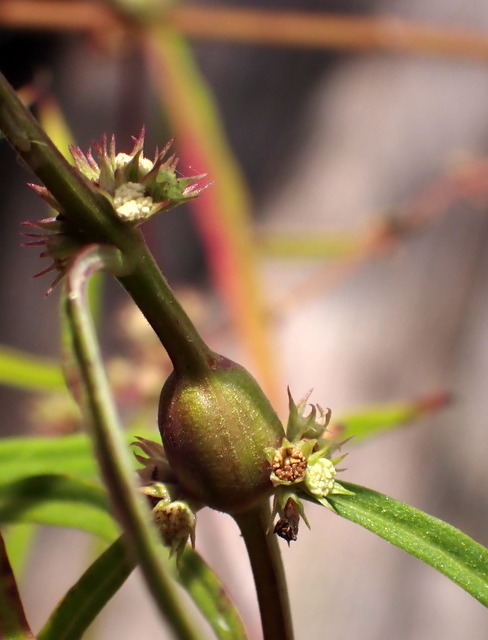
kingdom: Animalia
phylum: Arthropoda
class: Insecta
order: Diptera
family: Cecidomyiidae
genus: Neolasioptera
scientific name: Neolasioptera lycopi
